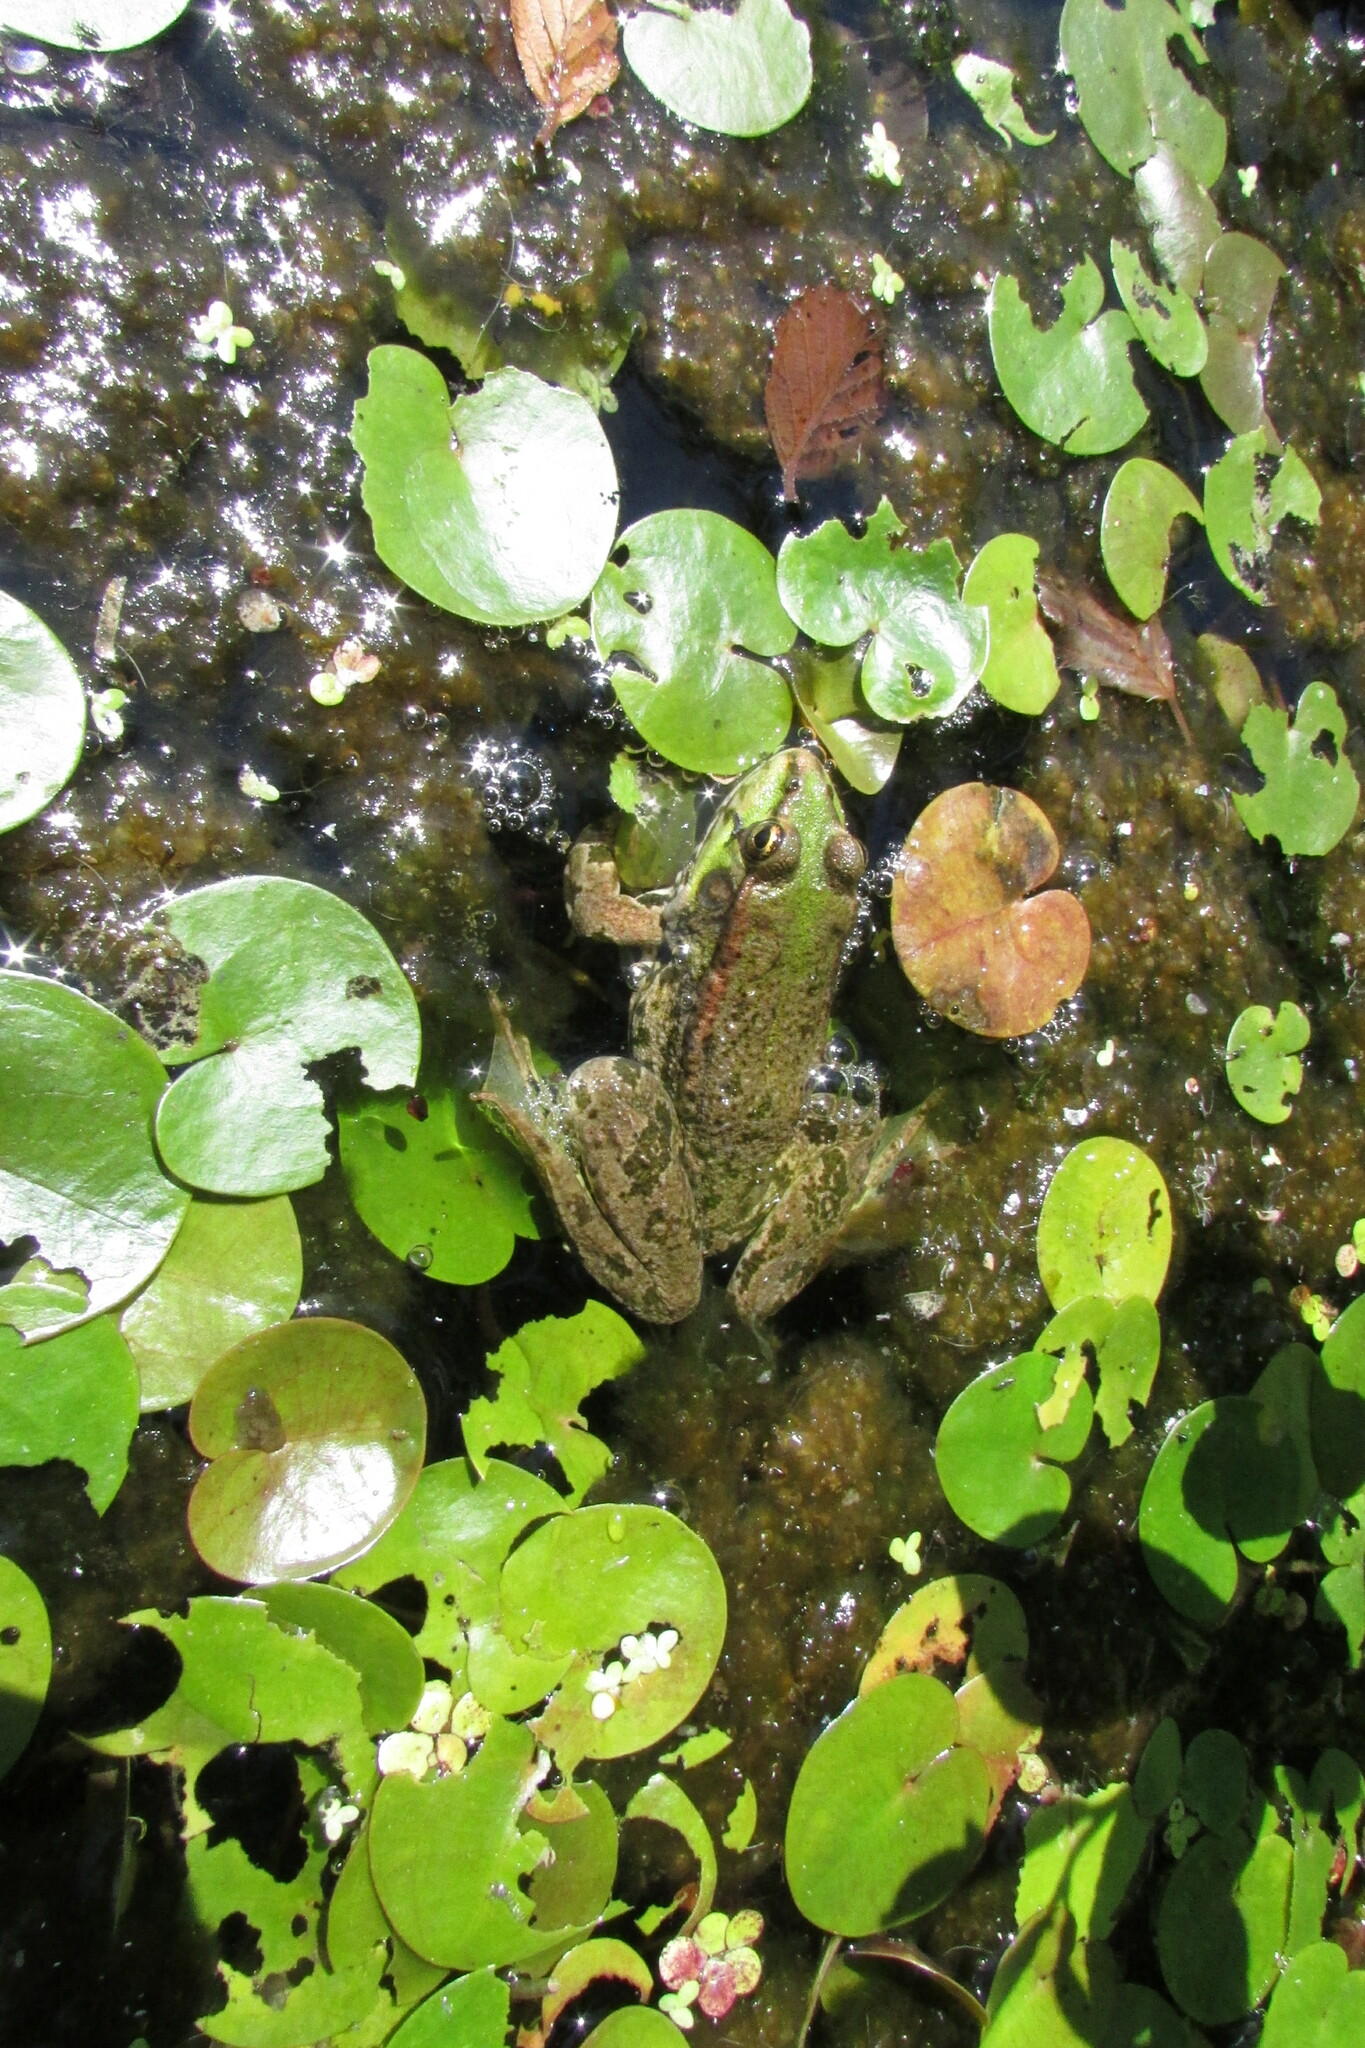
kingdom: Animalia
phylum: Chordata
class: Amphibia
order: Anura
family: Ranidae
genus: Pelophylax
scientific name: Pelophylax ridibundus
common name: Marsh frog
